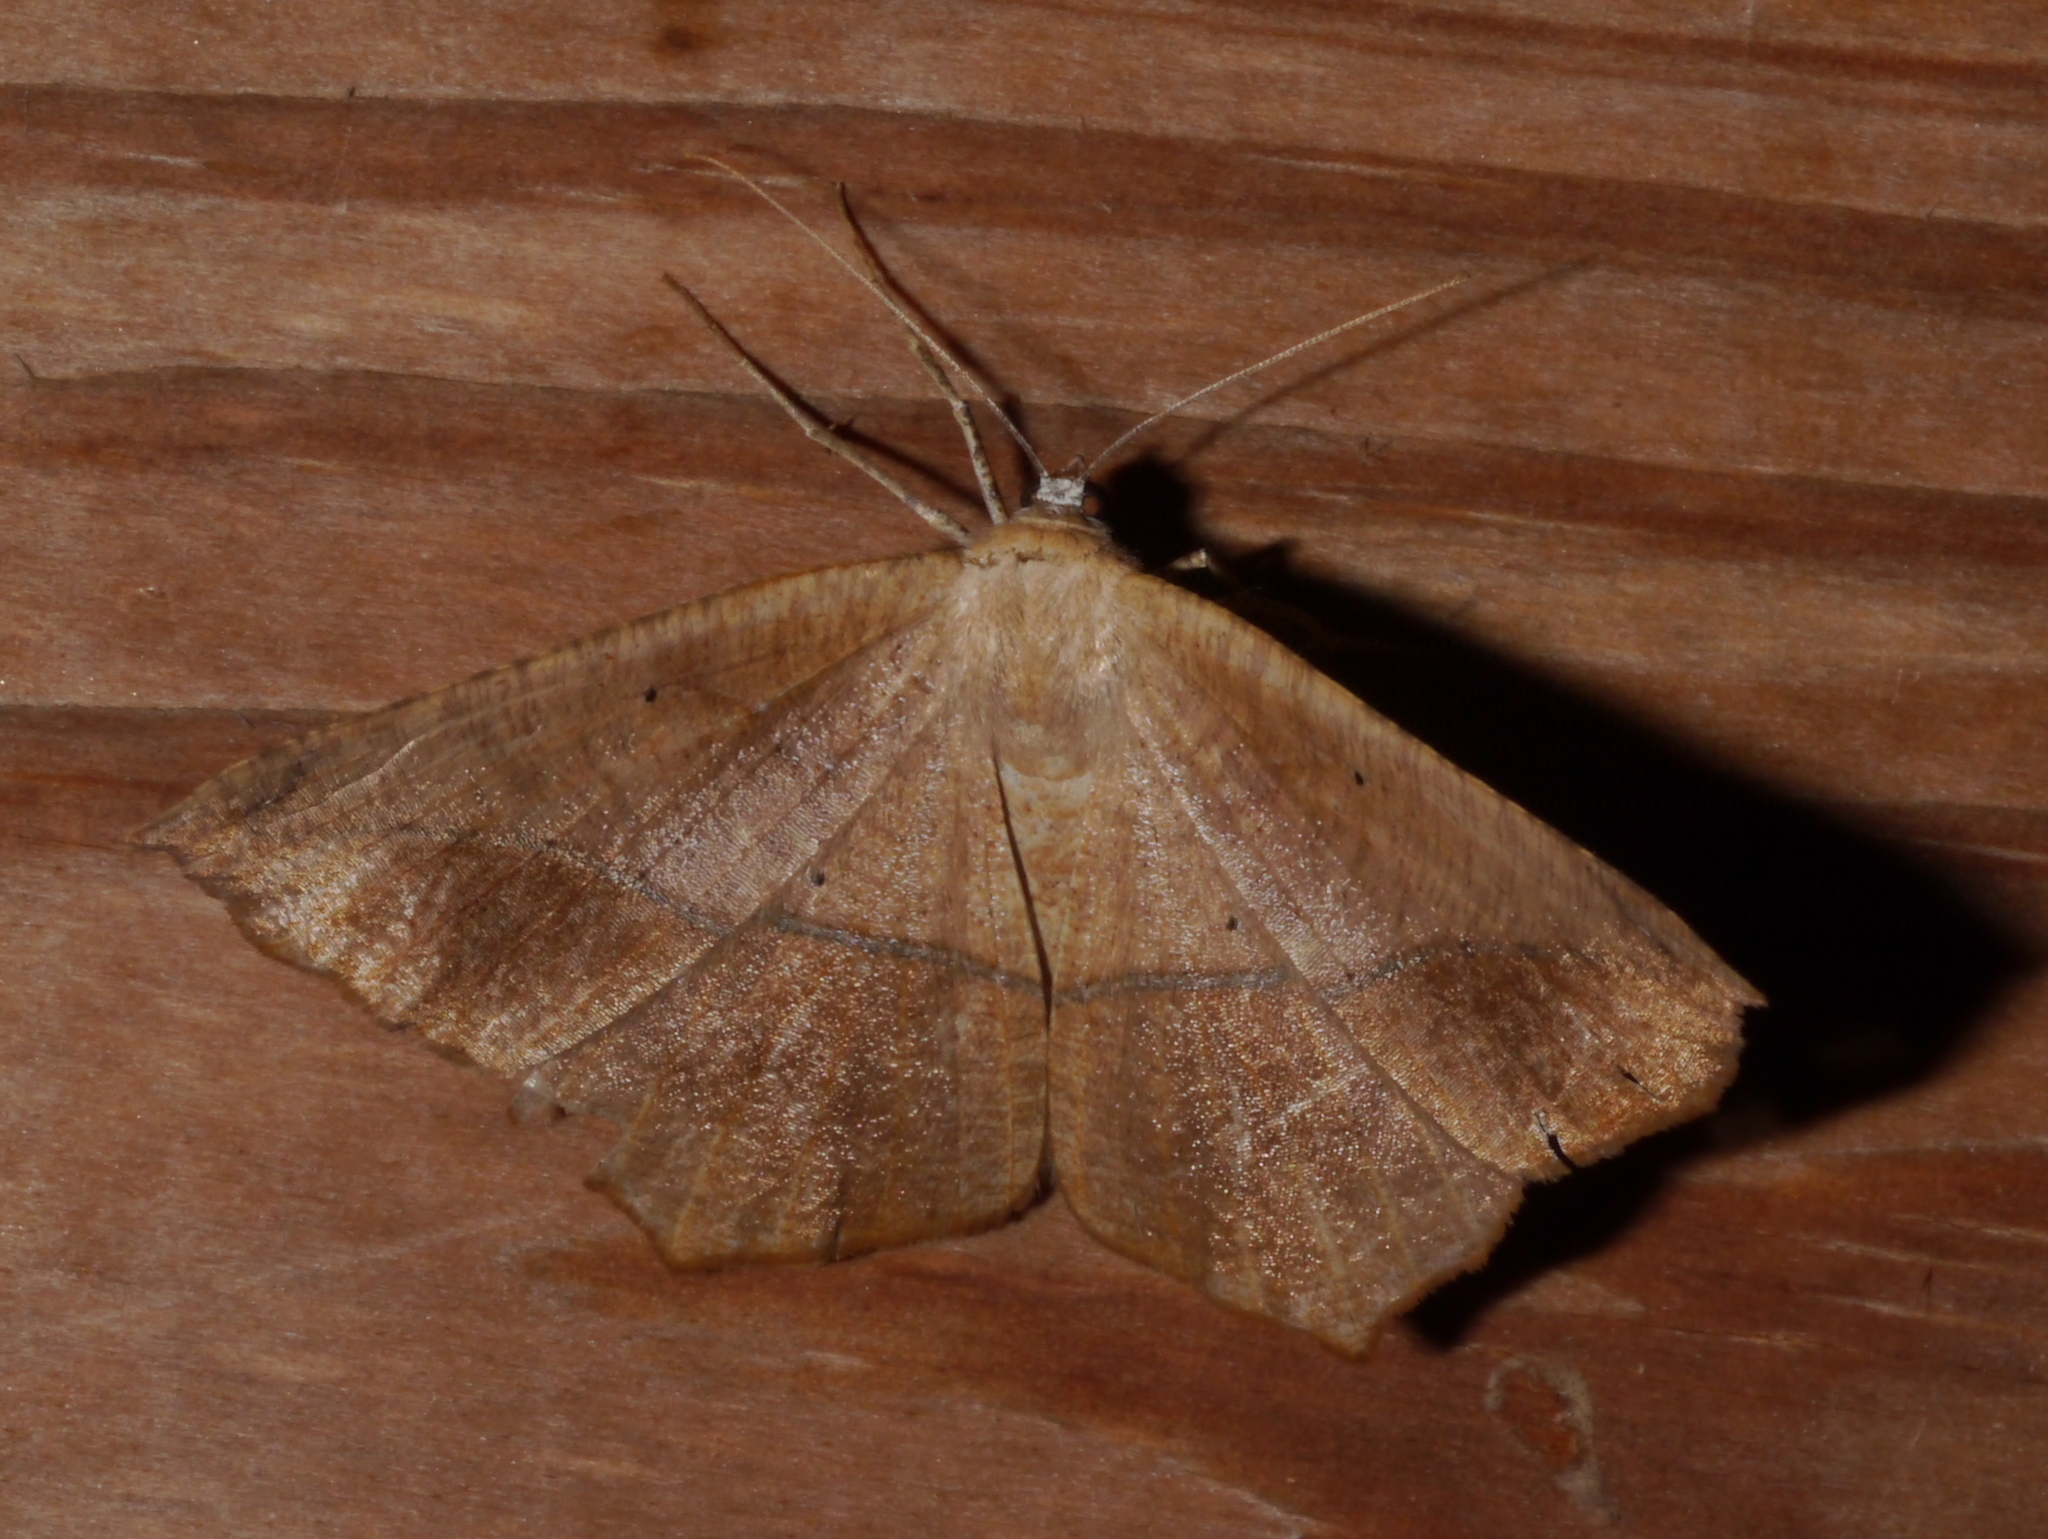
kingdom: Animalia
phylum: Arthropoda
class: Insecta
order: Lepidoptera
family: Geometridae
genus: Prochoerodes
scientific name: Prochoerodes lineola
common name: Large maple spanworm
